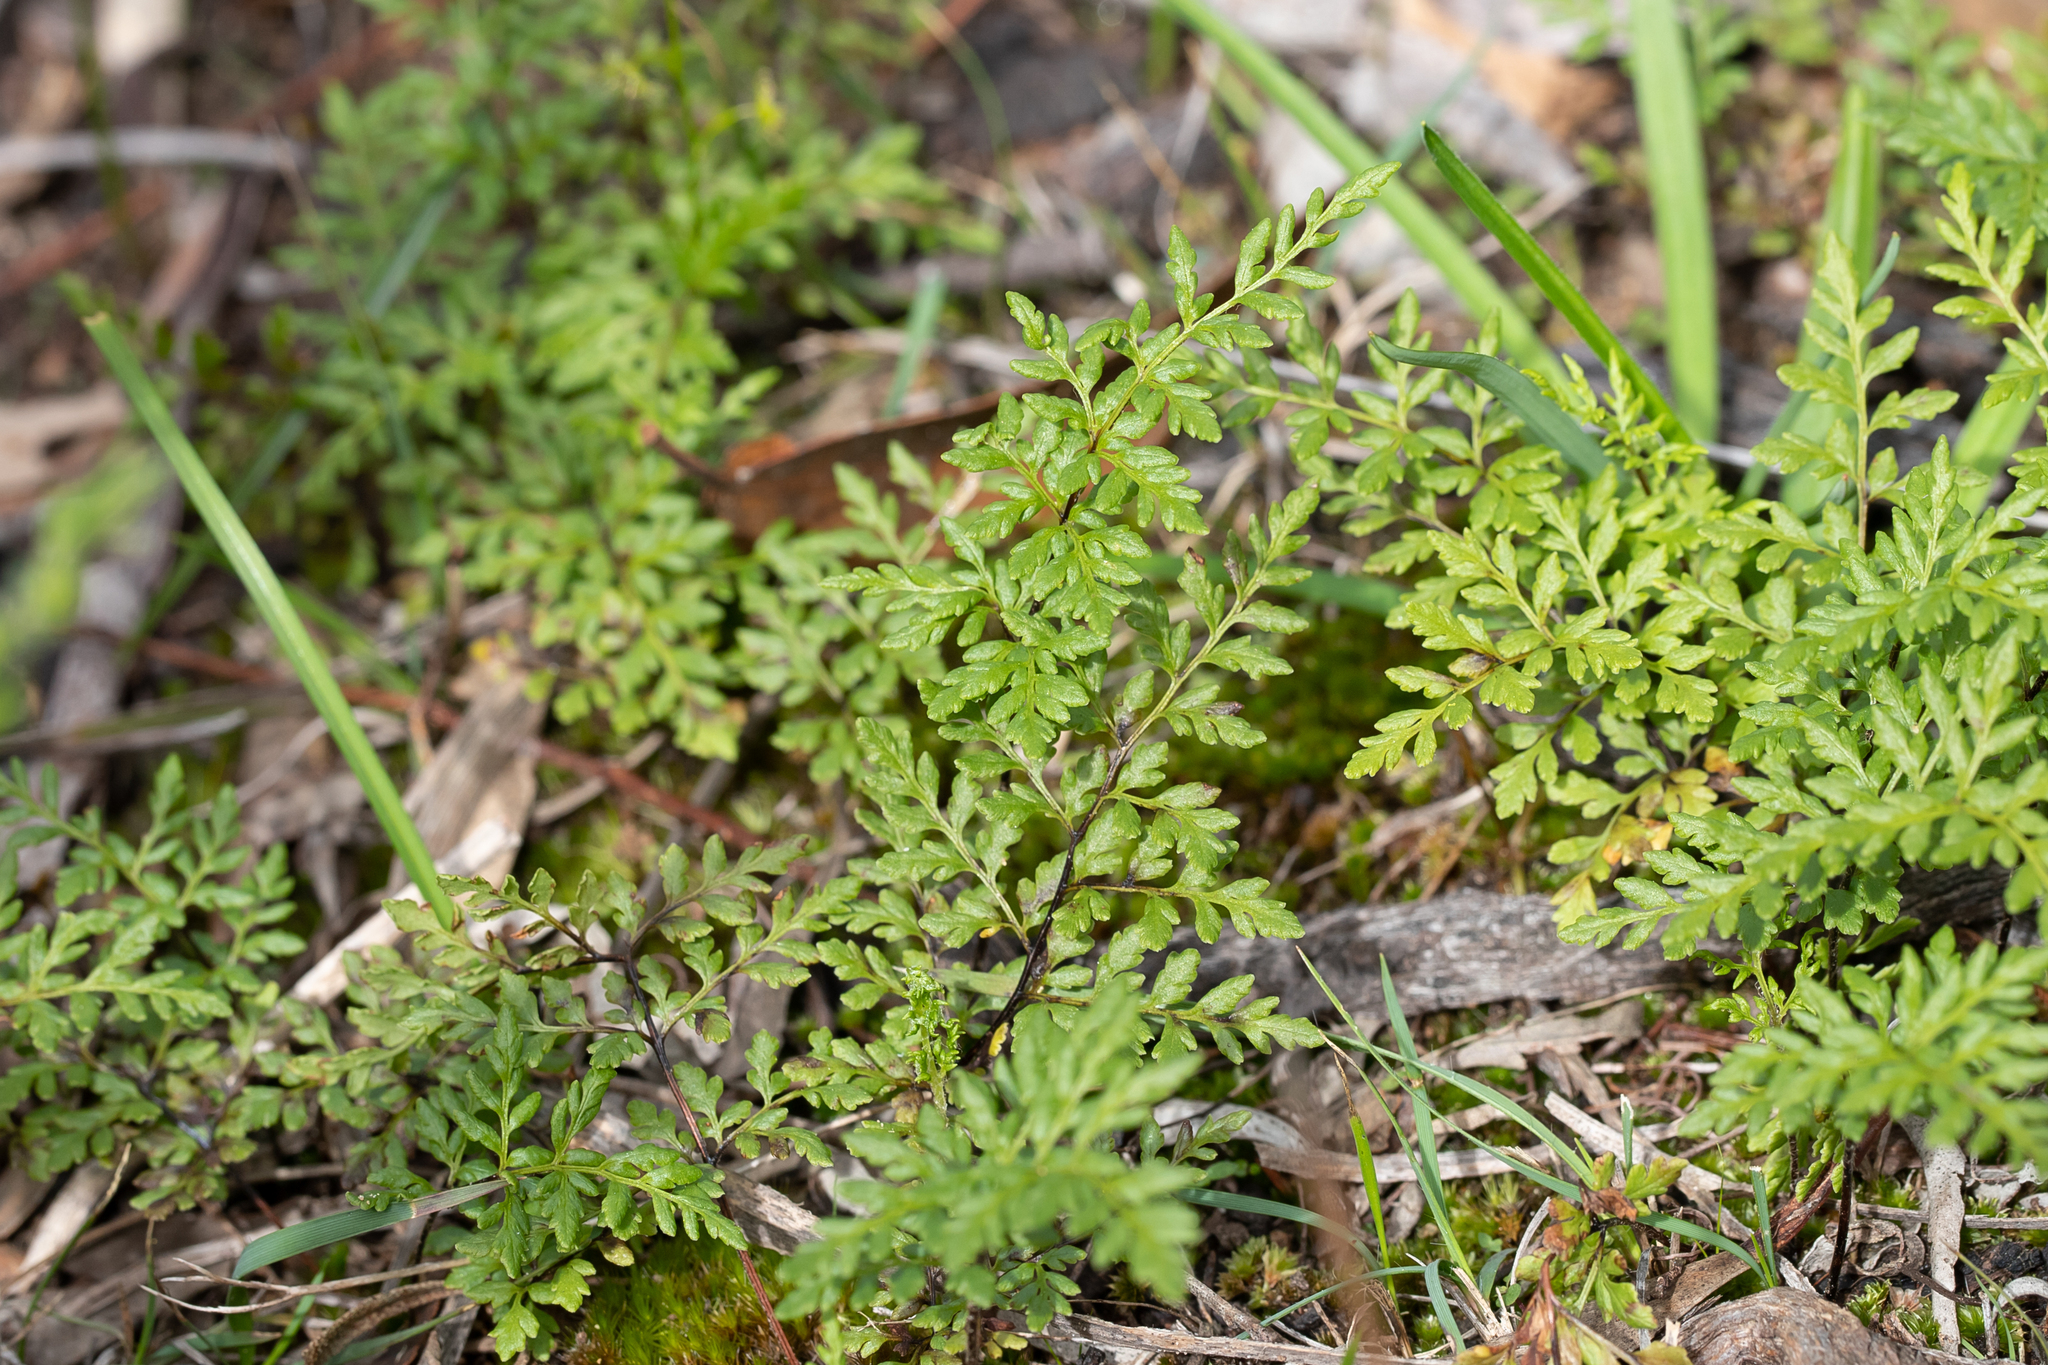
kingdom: Plantae
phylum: Tracheophyta
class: Polypodiopsida
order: Polypodiales
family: Pteridaceae
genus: Cheilanthes
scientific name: Cheilanthes austrotenuifolia
